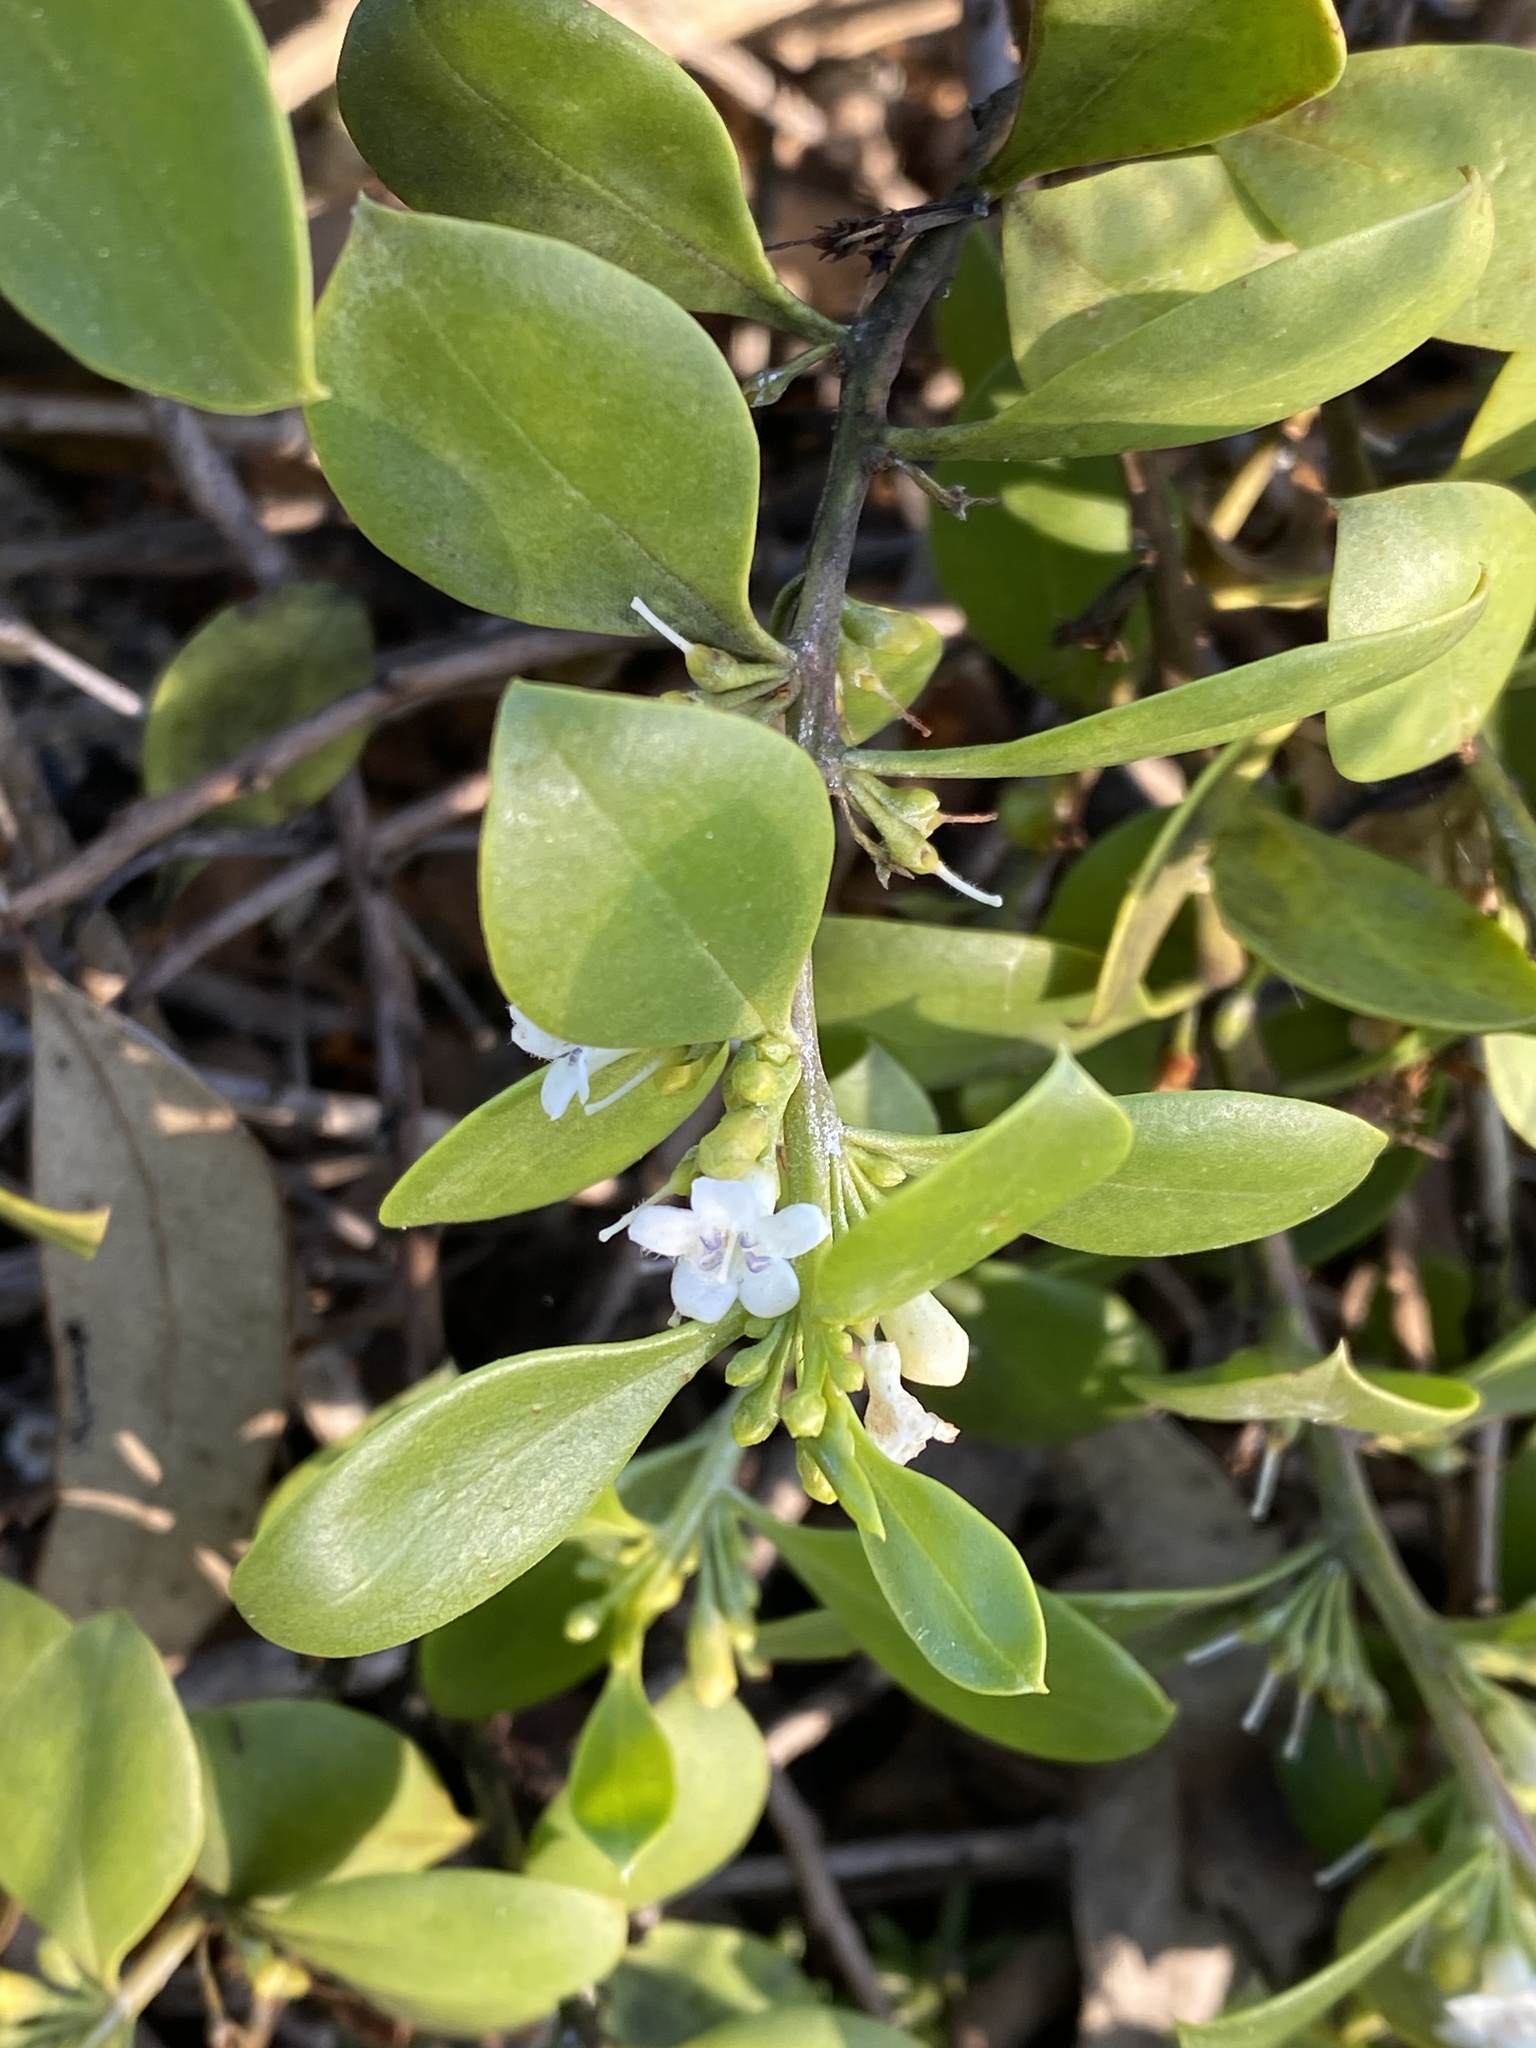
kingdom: Plantae
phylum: Tracheophyta
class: Magnoliopsida
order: Lamiales
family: Scrophulariaceae
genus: Myoporum
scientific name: Myoporum boninense
